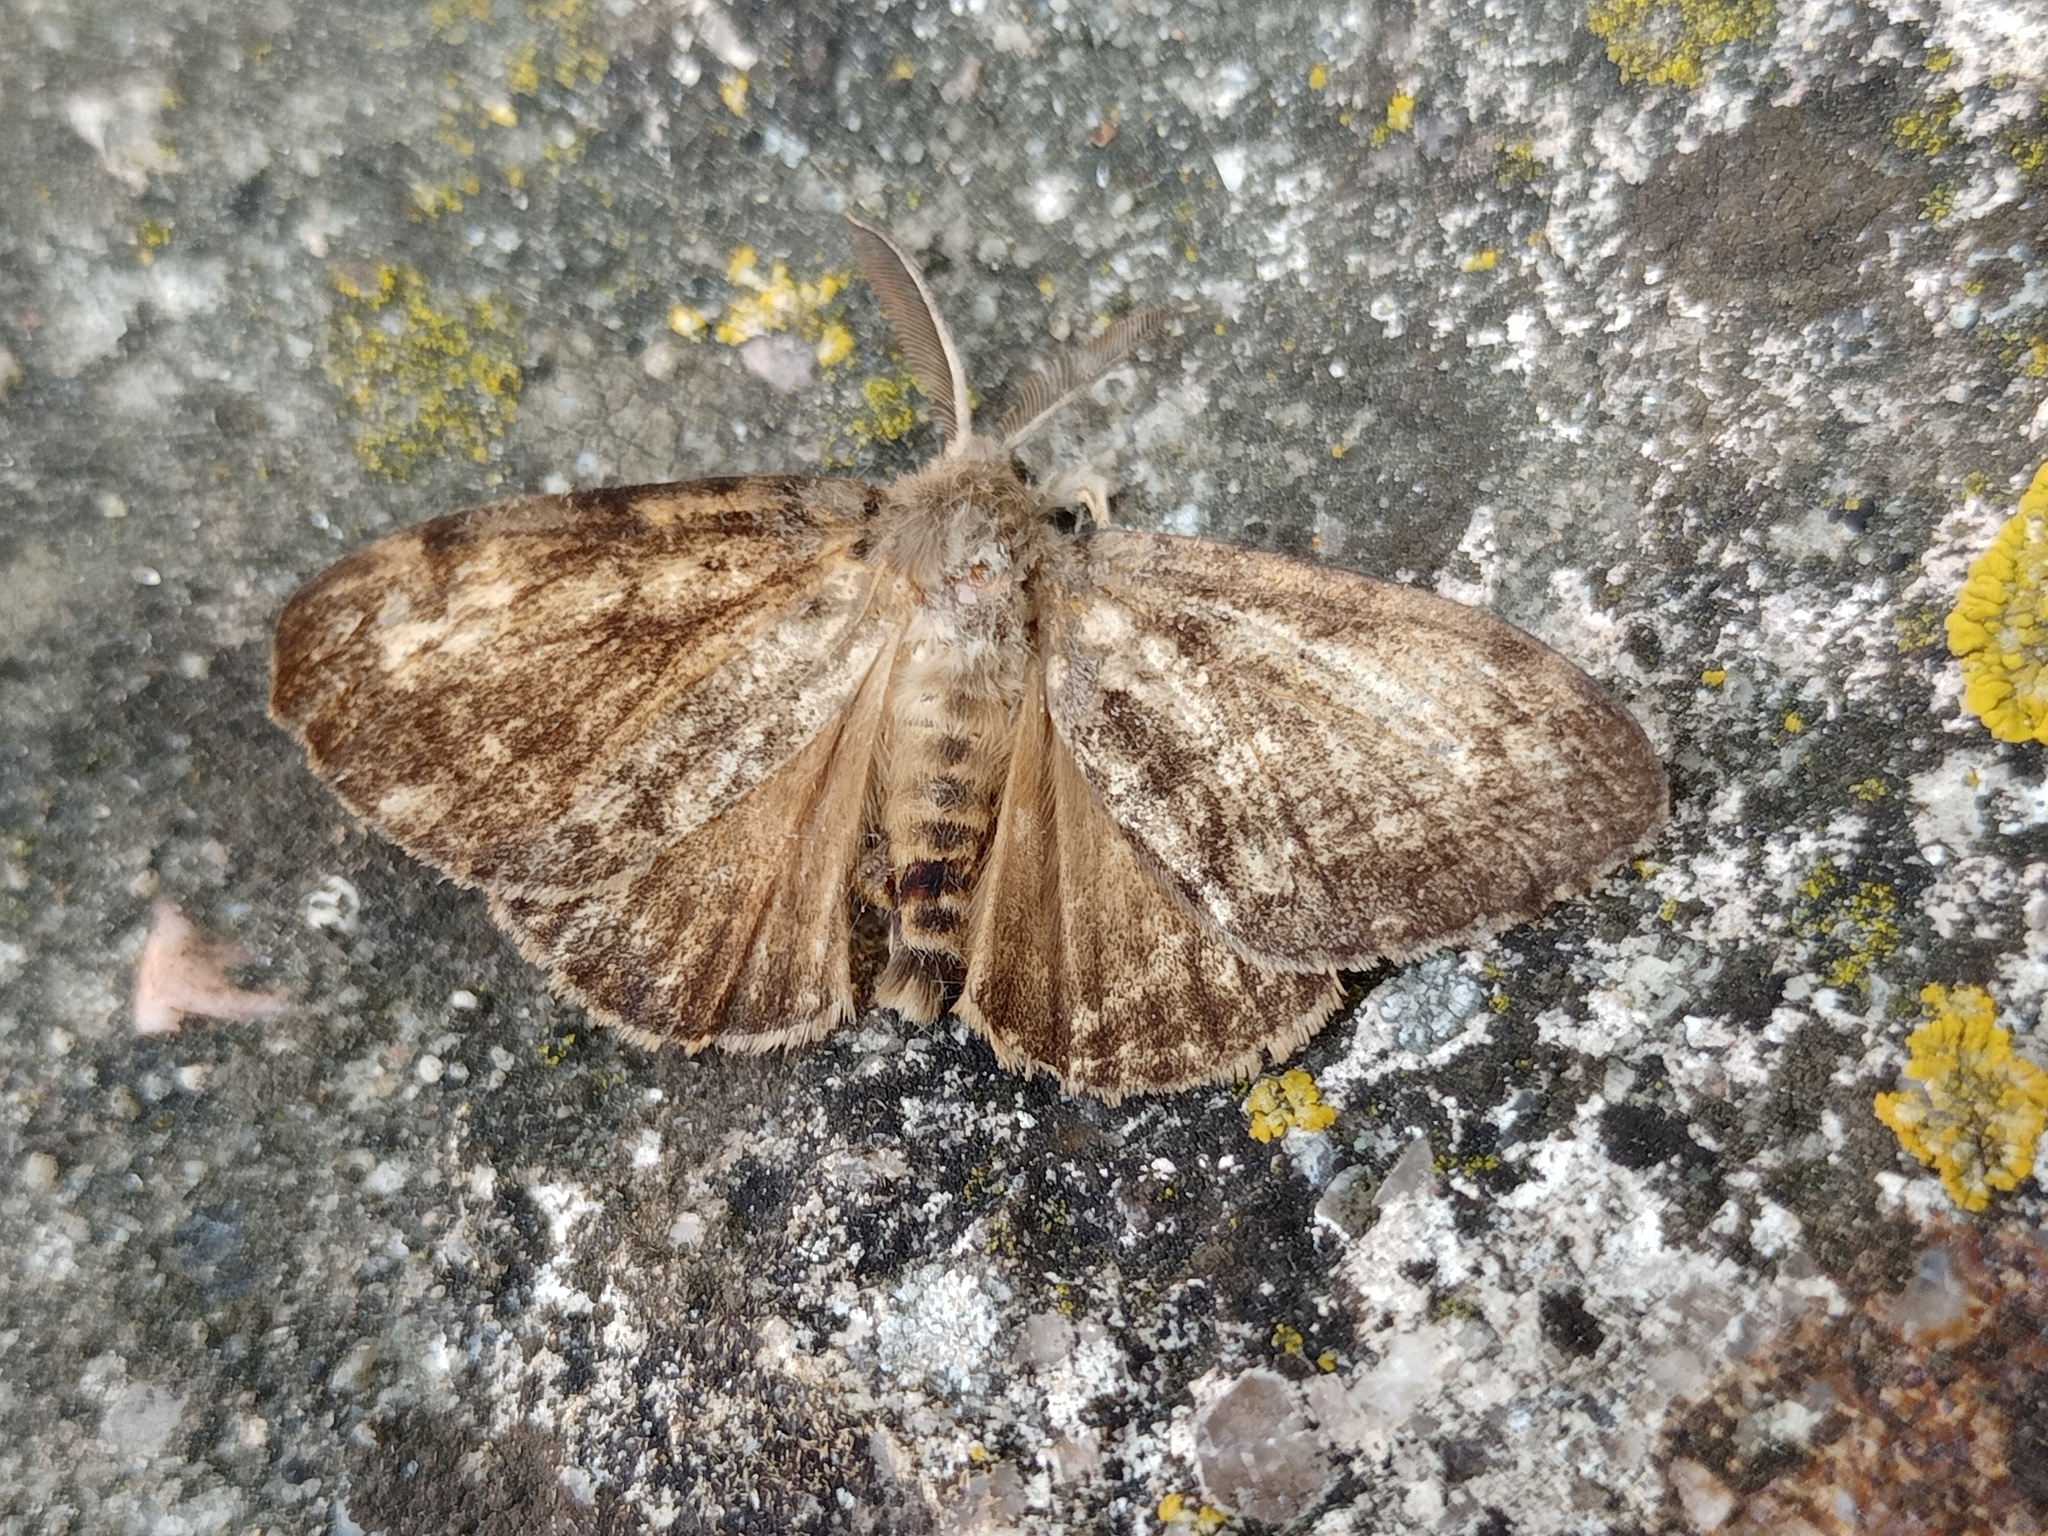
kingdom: Animalia
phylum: Arthropoda
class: Insecta
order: Lepidoptera
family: Erebidae
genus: Lymantria
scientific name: Lymantria dispar
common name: Gypsy moth
